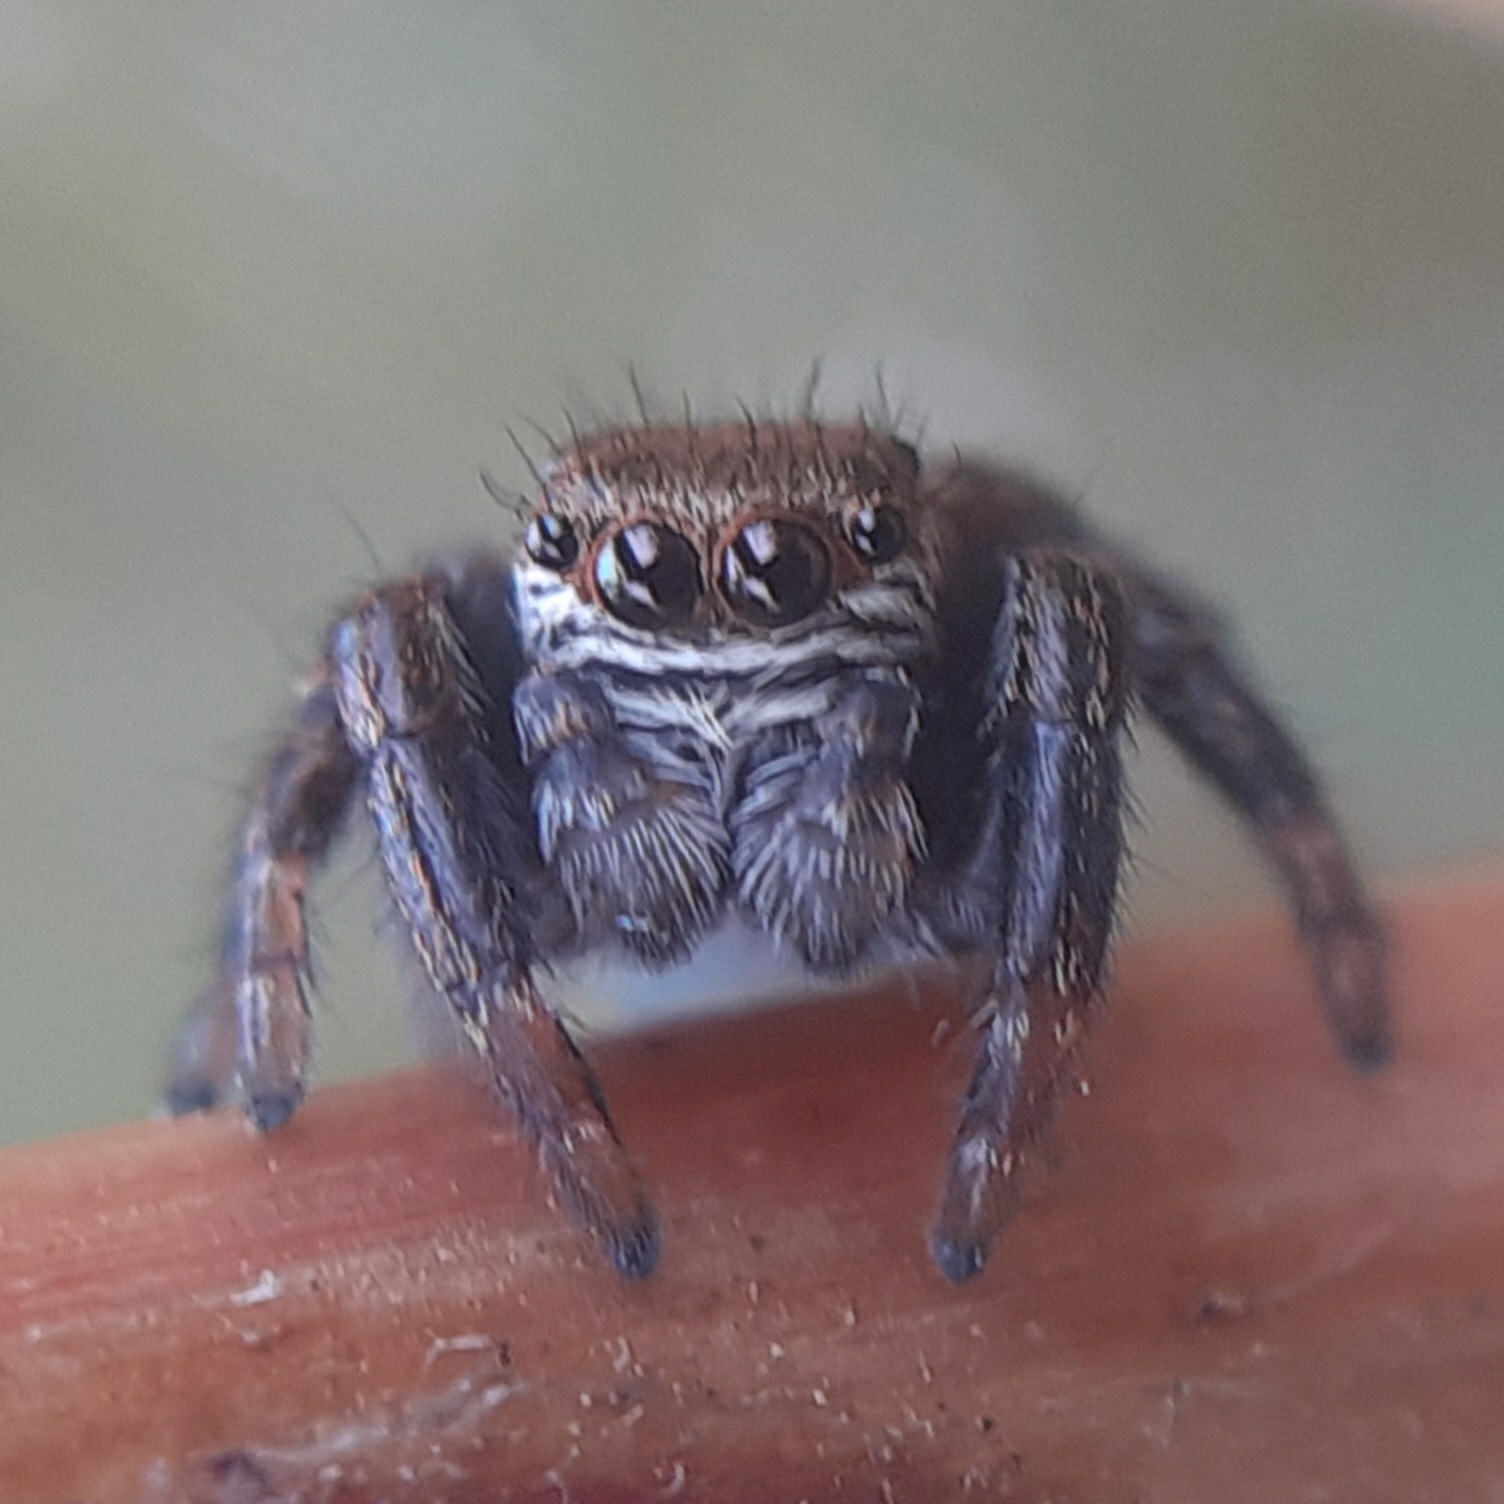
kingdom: Animalia
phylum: Arthropoda
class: Arachnida
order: Araneae
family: Salticidae
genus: Evarcha
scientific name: Evarcha arcuata
